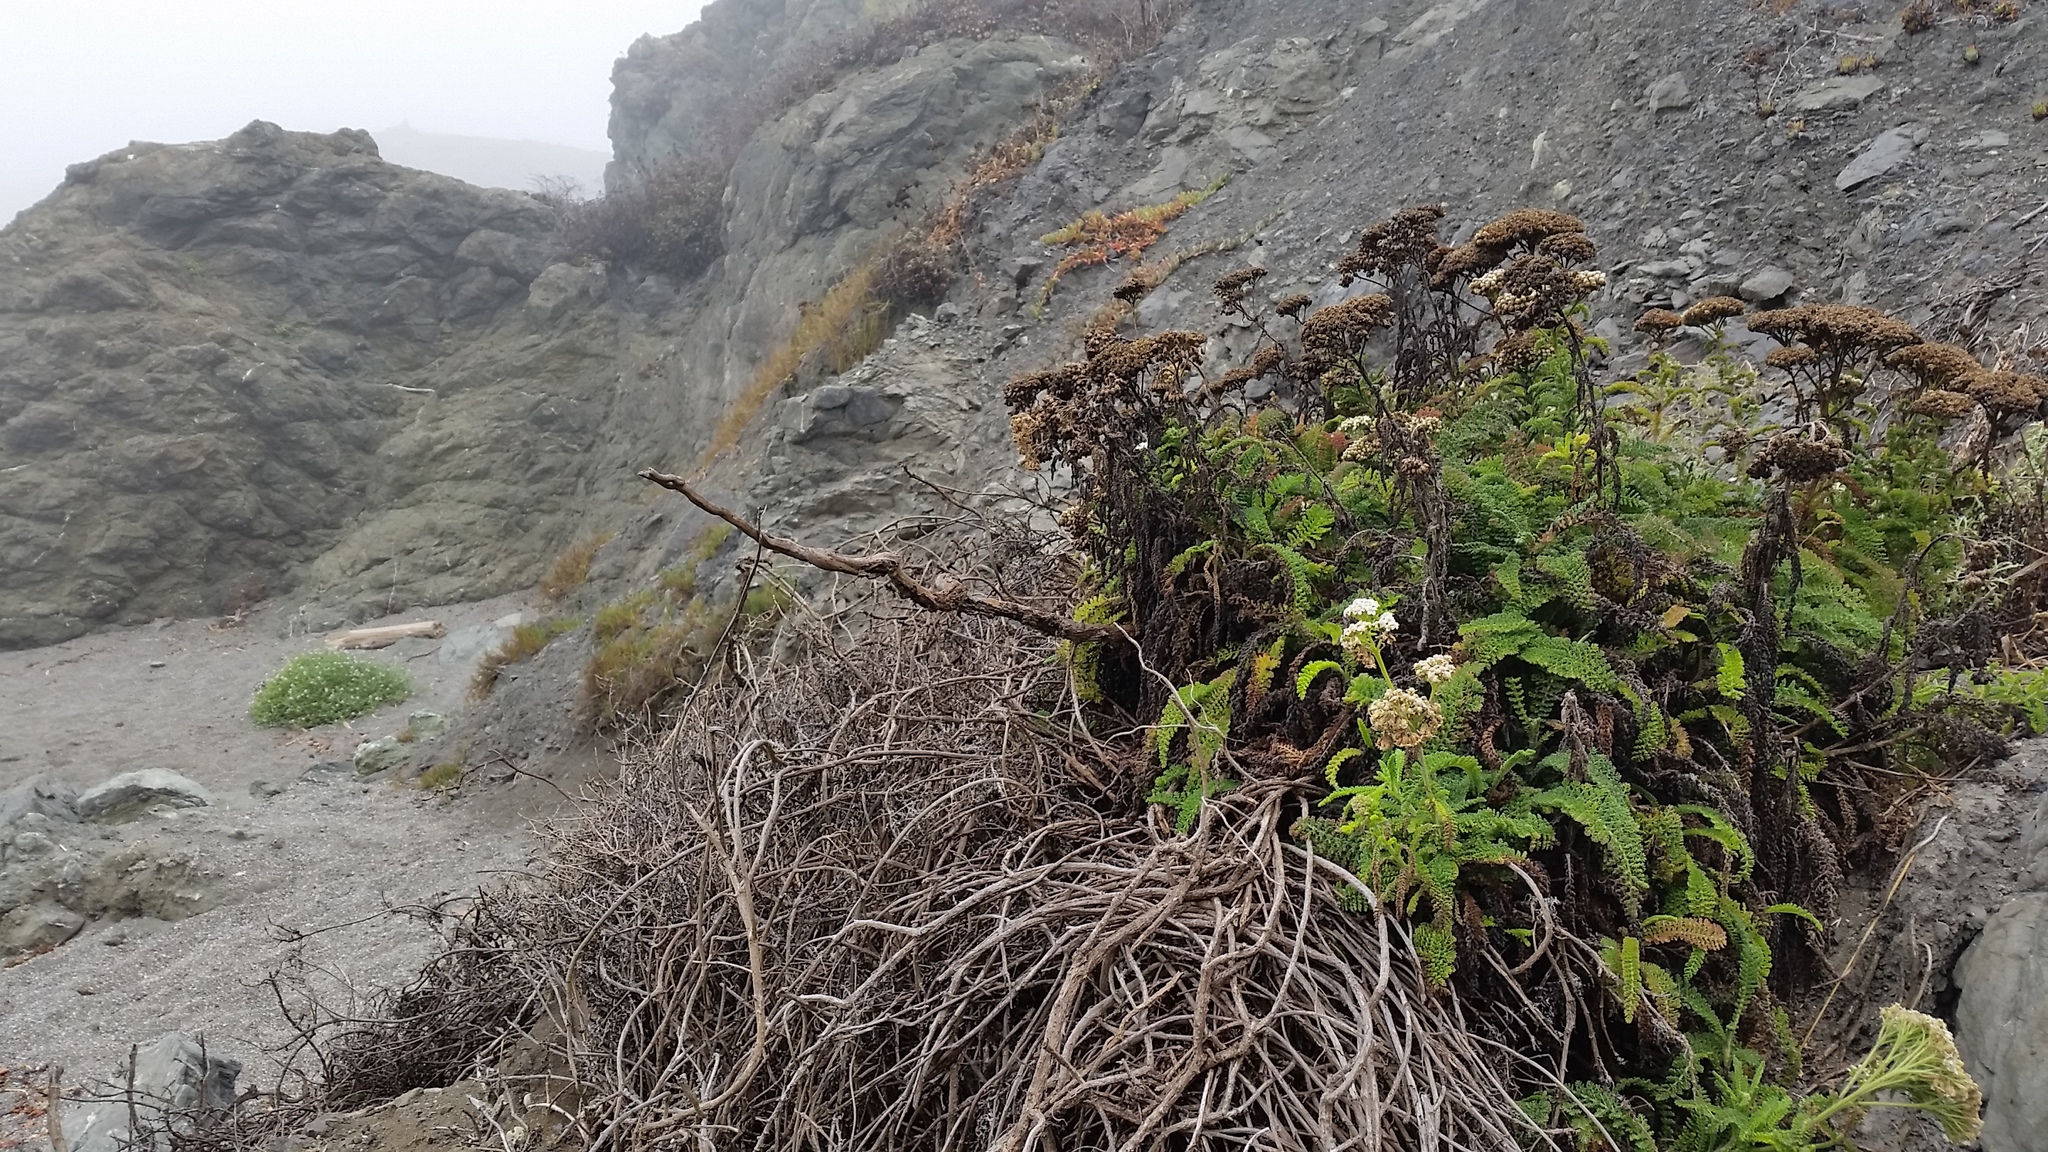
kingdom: Plantae
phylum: Tracheophyta
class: Magnoliopsida
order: Asterales
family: Asteraceae
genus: Achillea
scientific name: Achillea millefolium
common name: Yarrow
